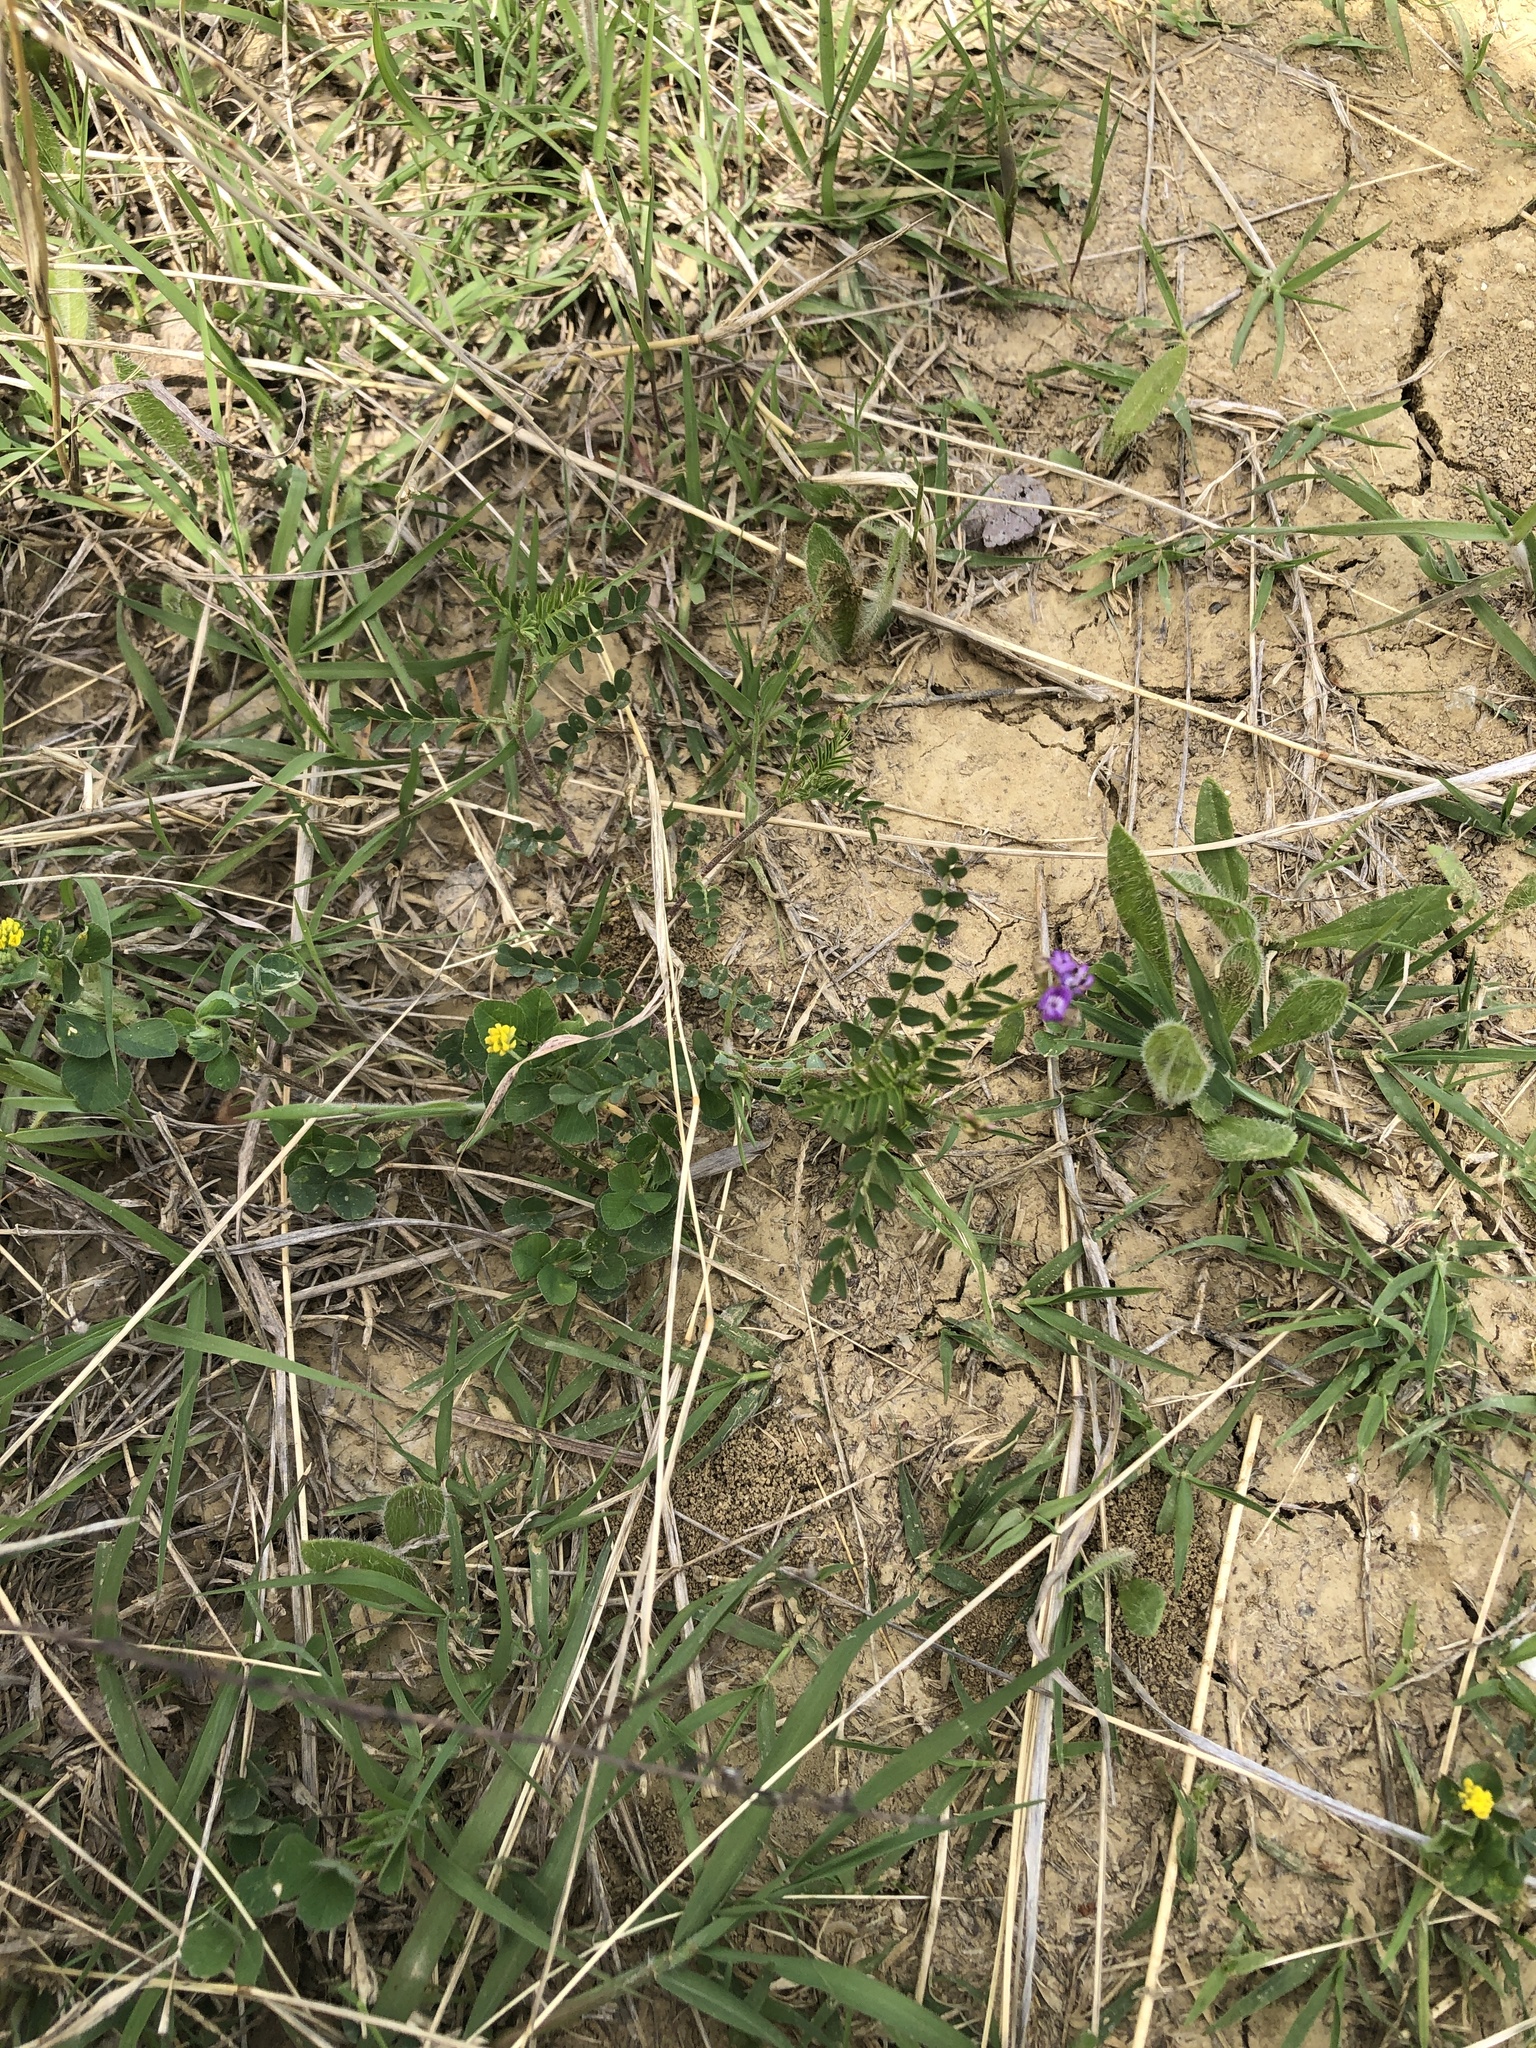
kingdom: Plantae
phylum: Tracheophyta
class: Magnoliopsida
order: Fabales
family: Fabaceae
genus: Astragalus
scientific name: Astragalus nuttallianus
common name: Smallflowered milkvetch
